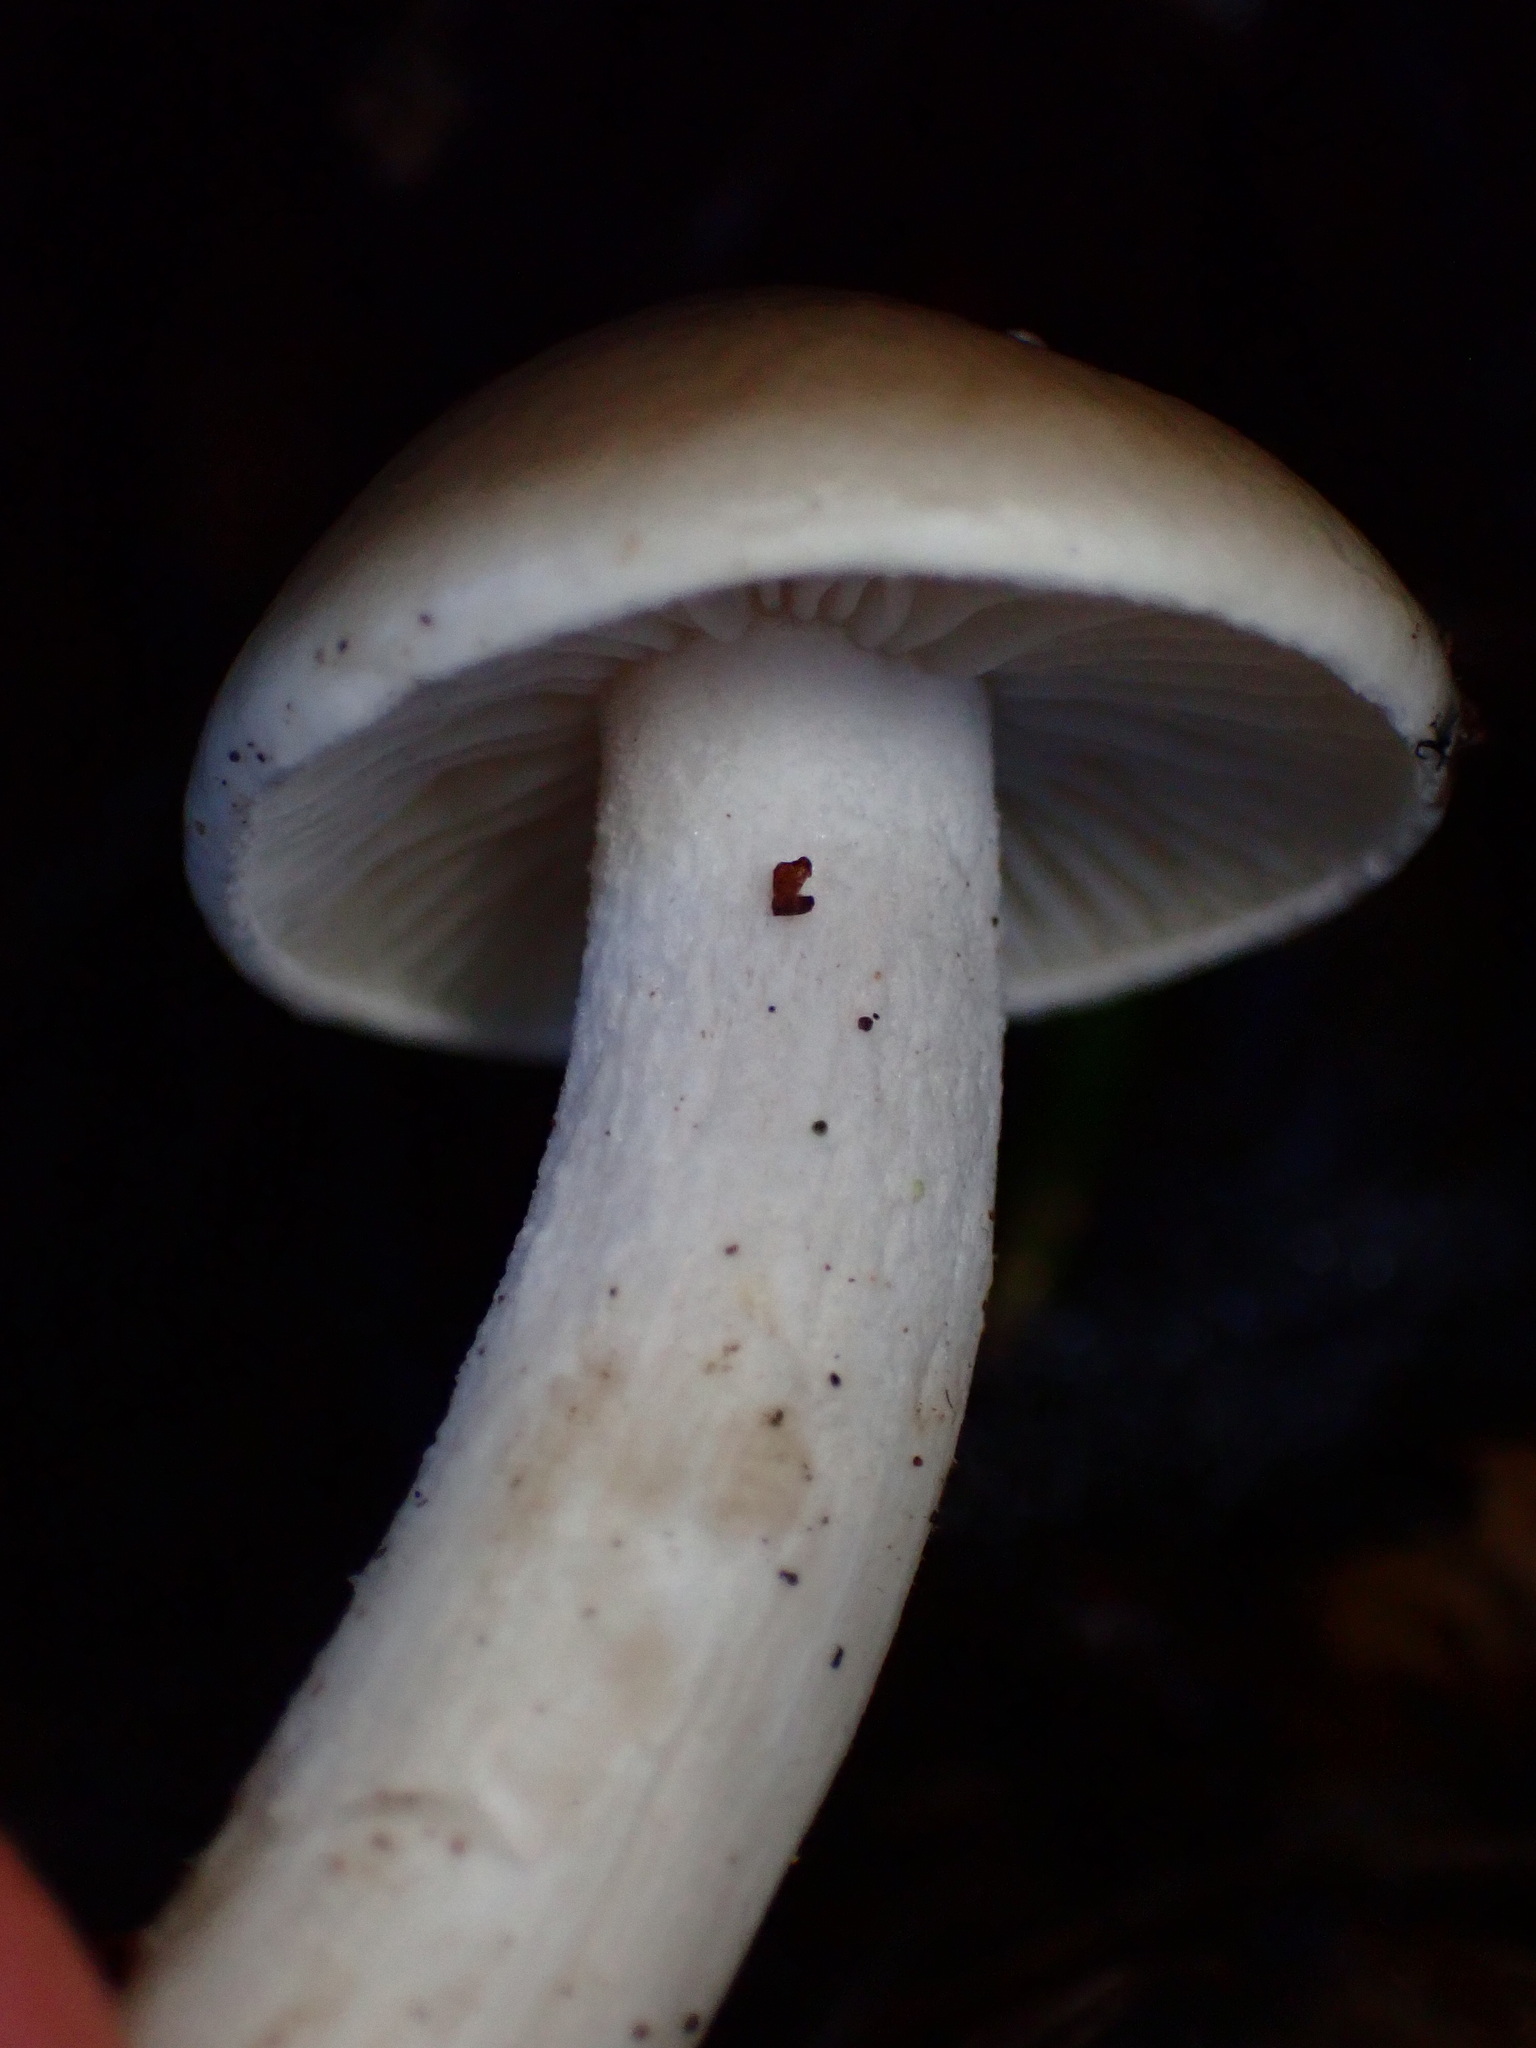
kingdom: Fungi
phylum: Basidiomycota
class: Agaricomycetes
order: Agaricales
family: Hygrophoraceae
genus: Hygrophorus
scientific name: Hygrophorus eburneus
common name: Ivory wax-cap
